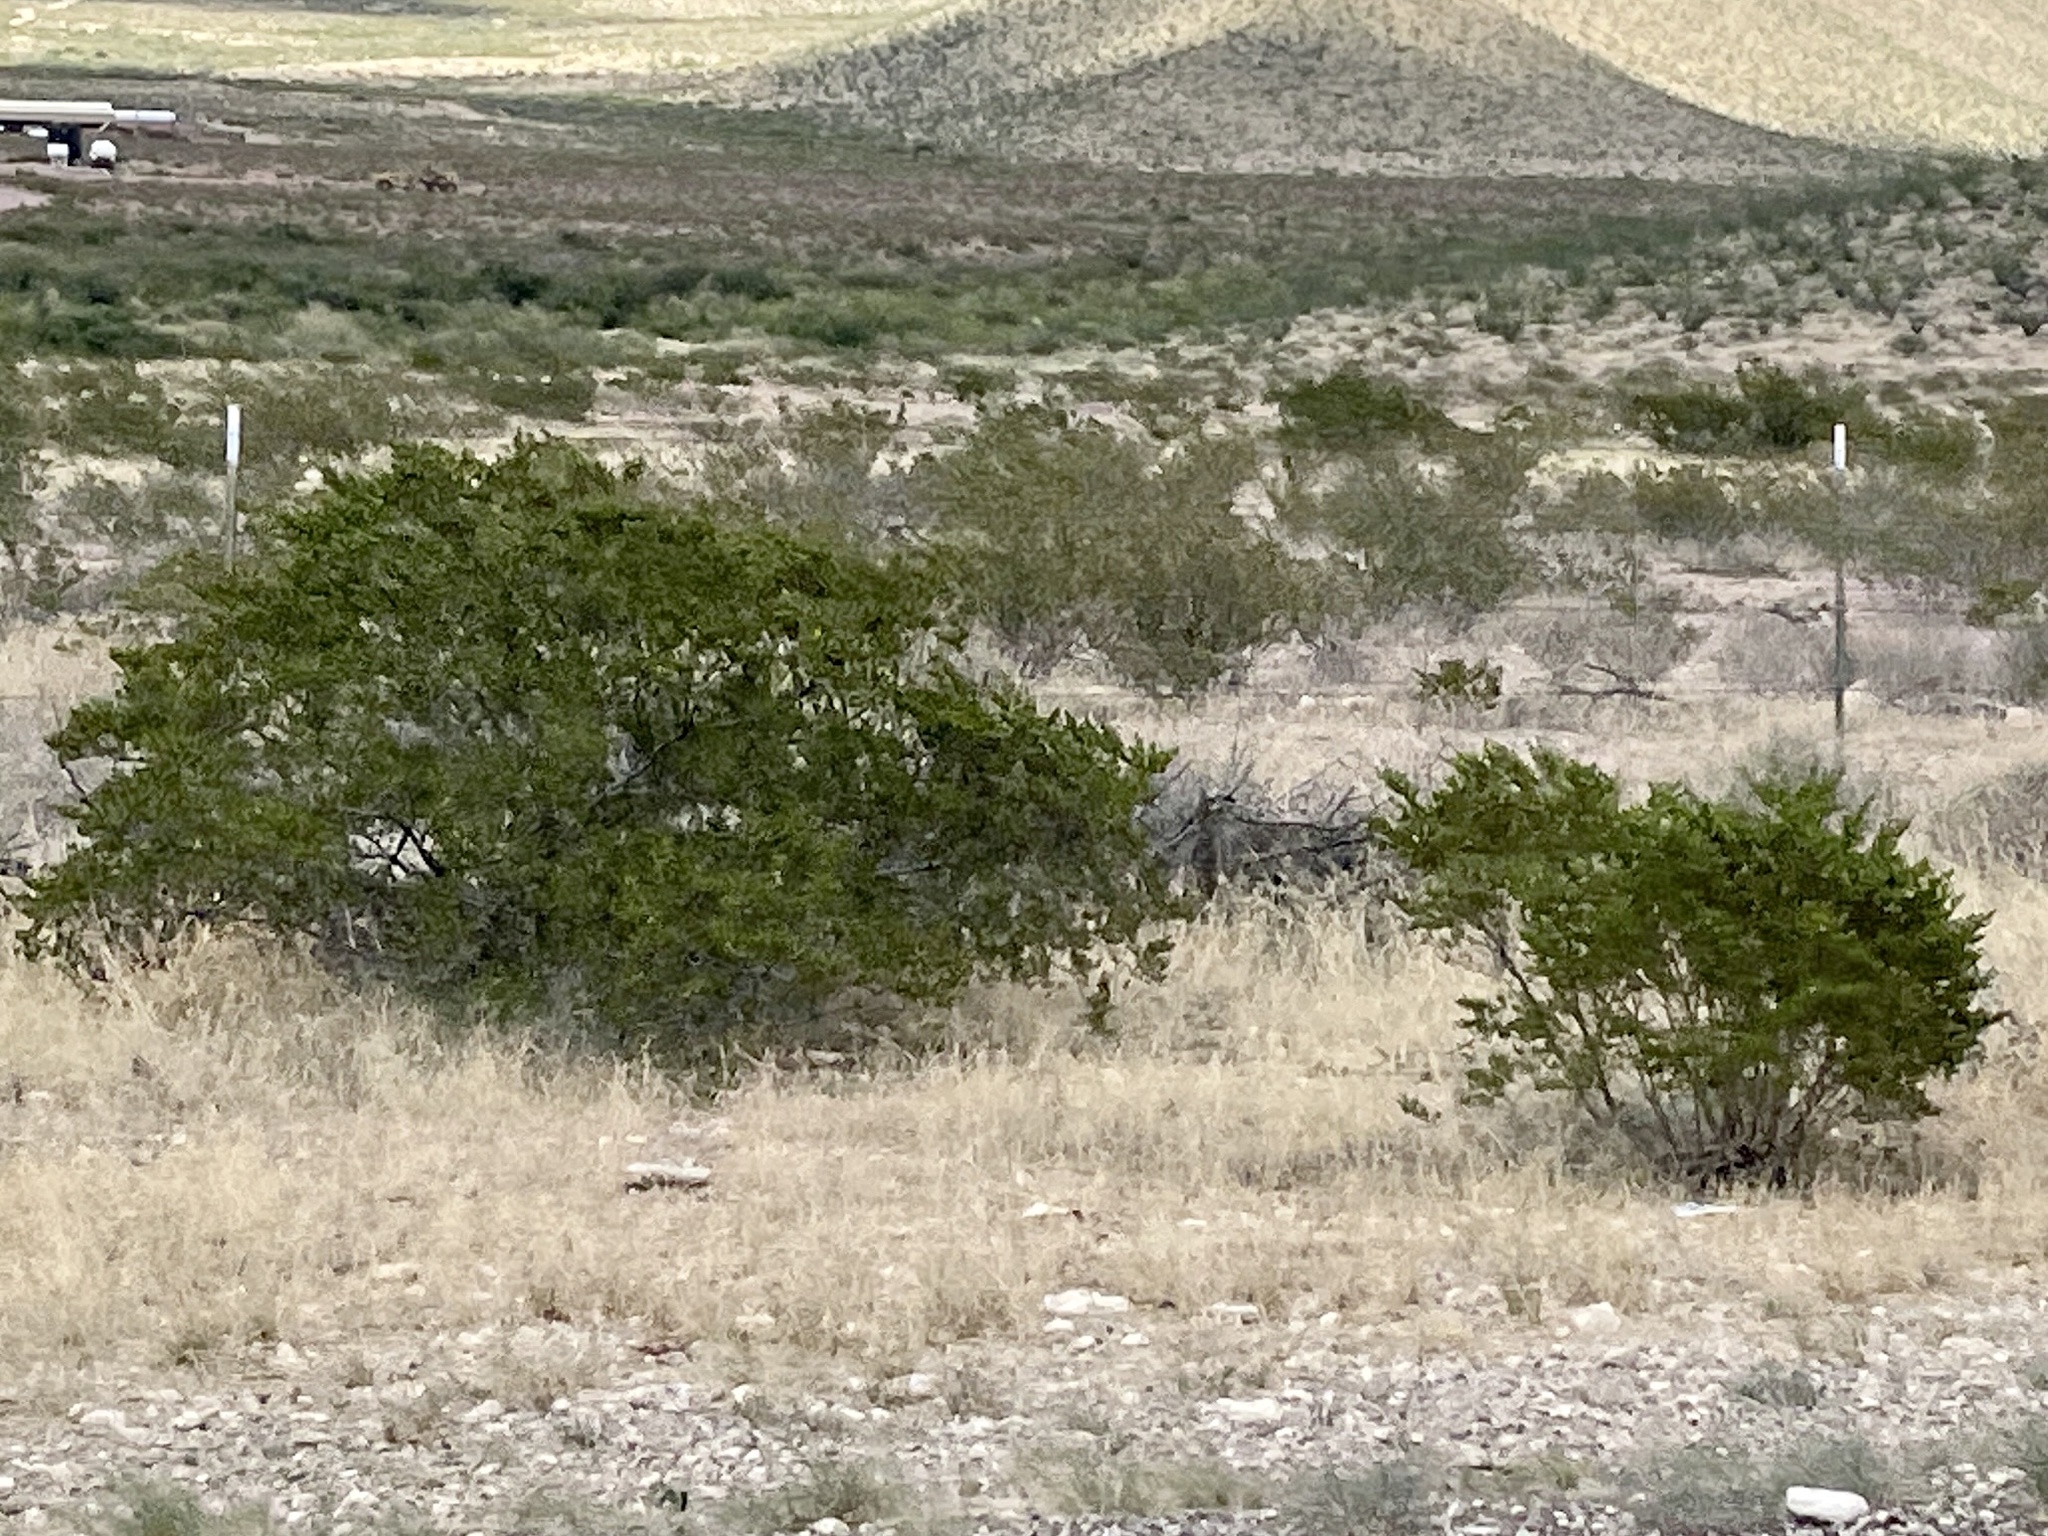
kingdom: Plantae
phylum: Tracheophyta
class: Magnoliopsida
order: Zygophyllales
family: Zygophyllaceae
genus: Larrea
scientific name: Larrea tridentata
